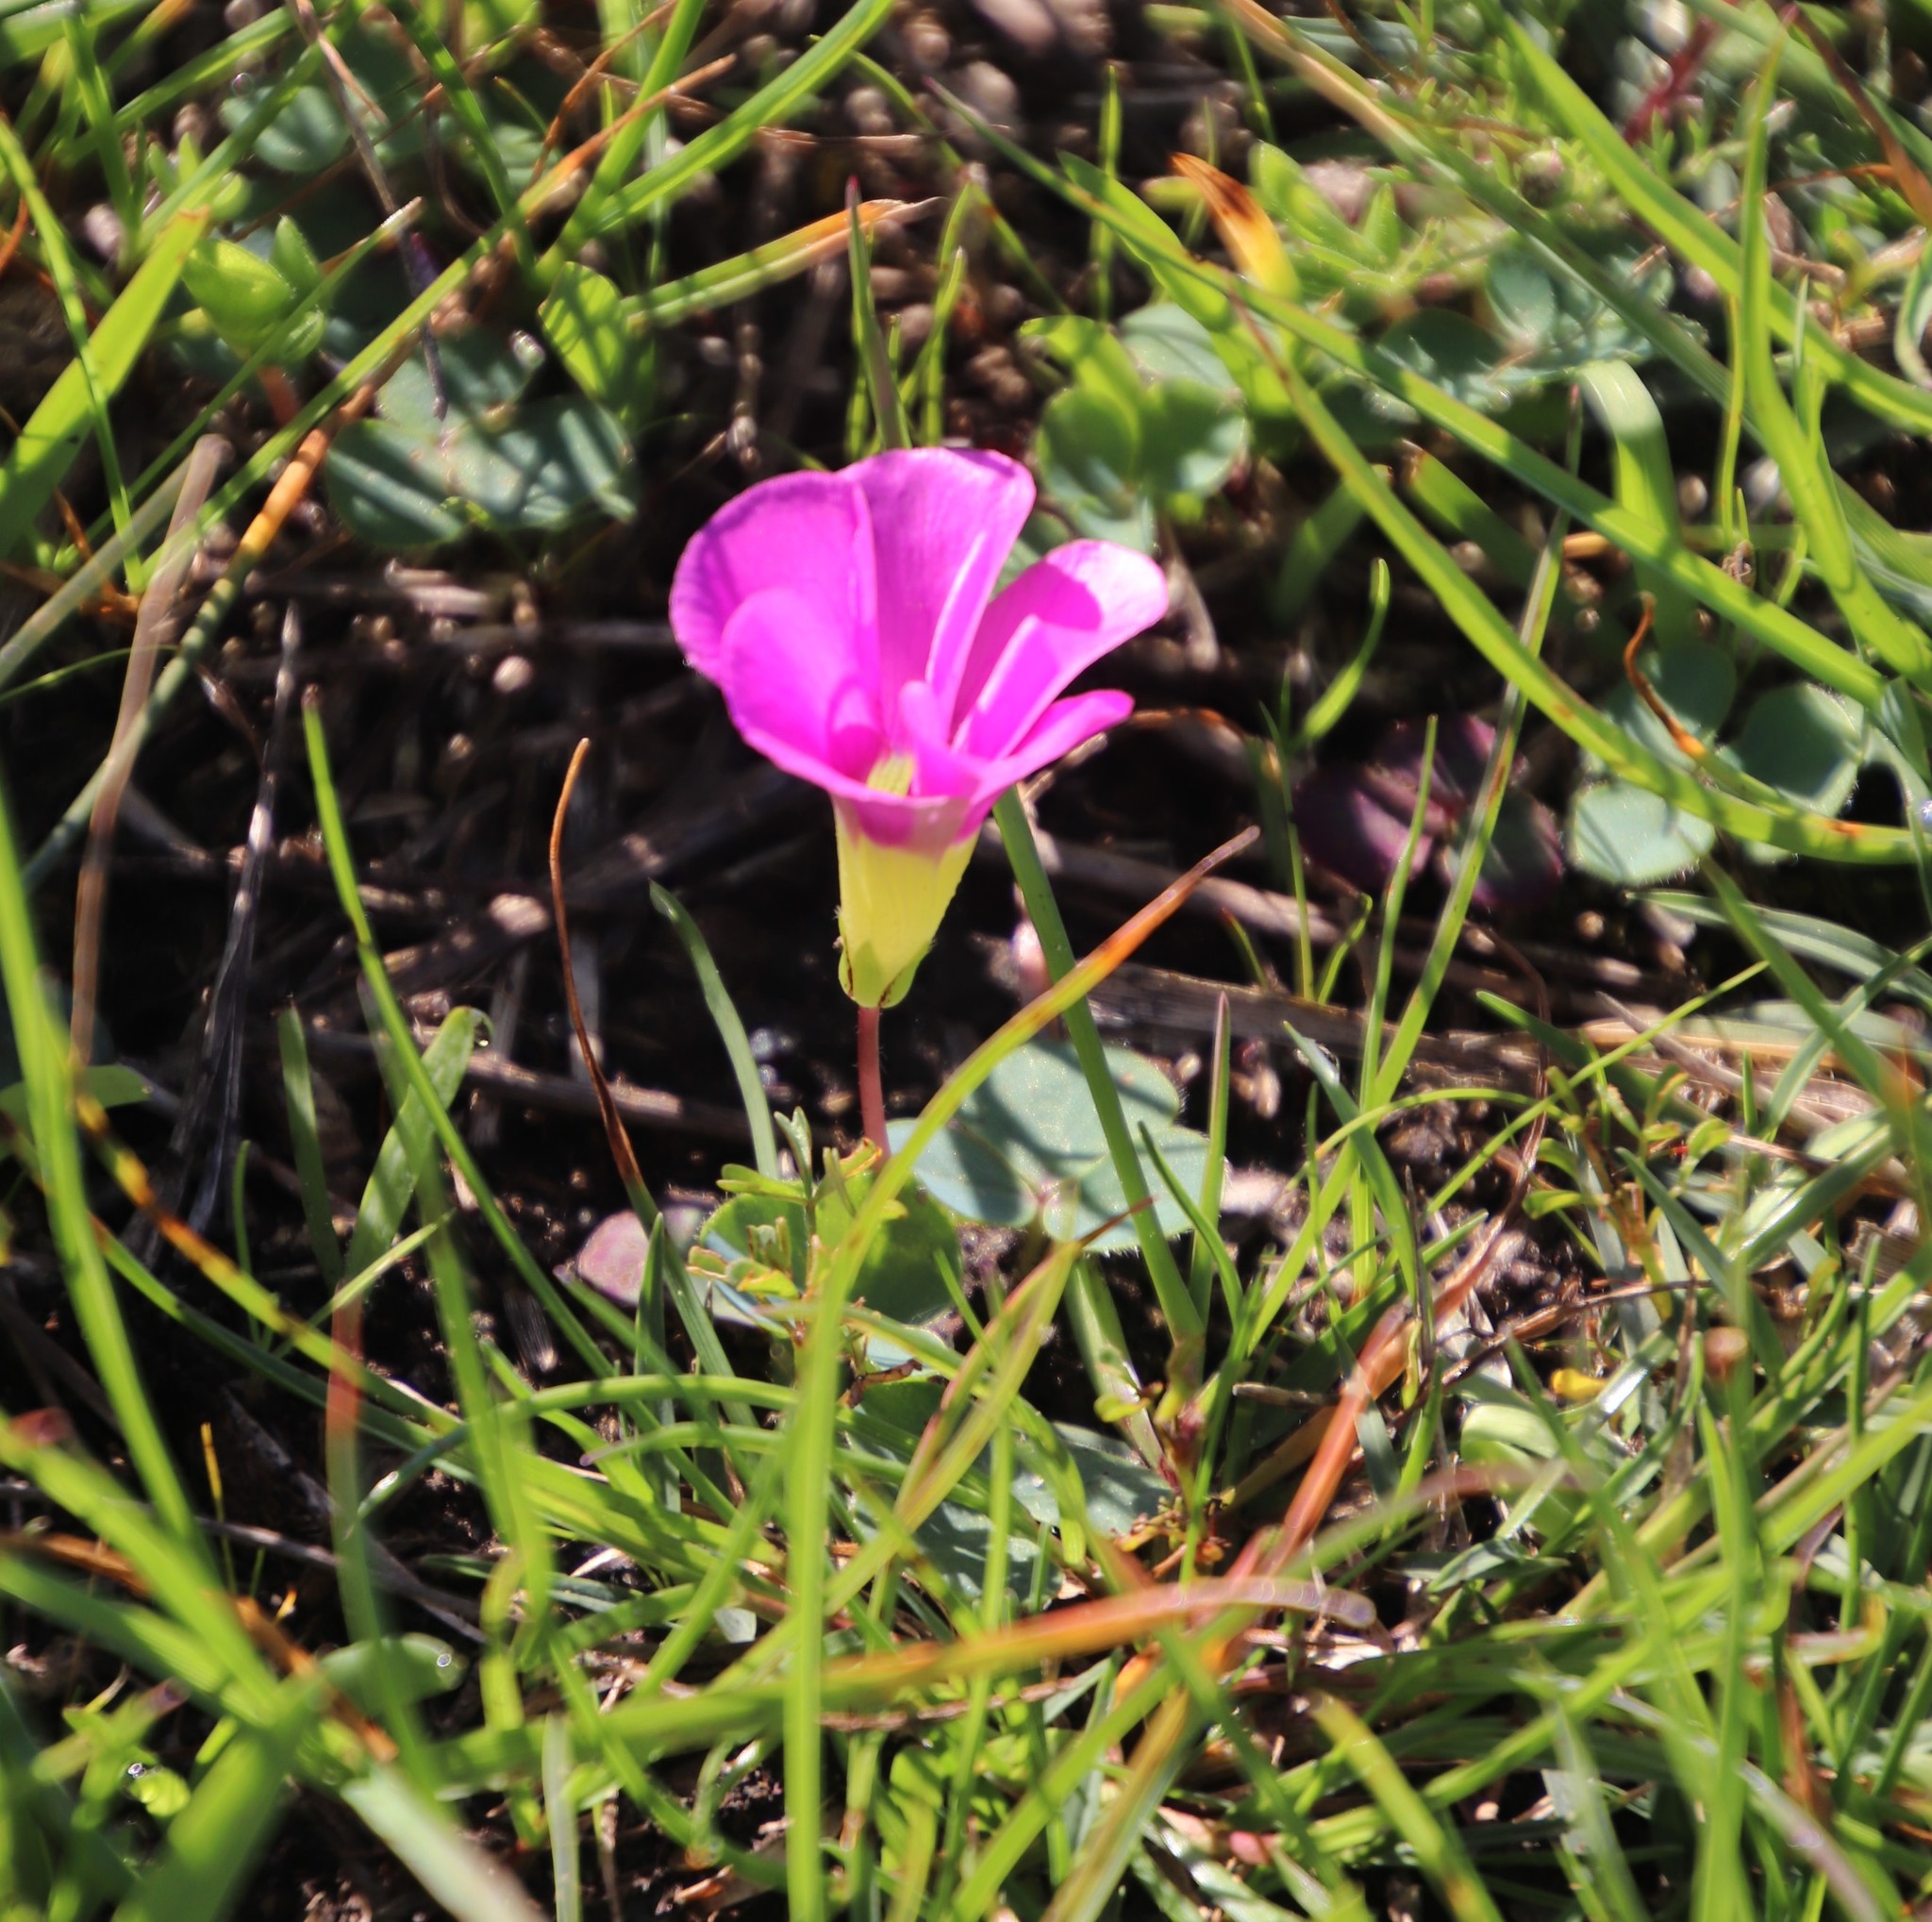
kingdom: Plantae
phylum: Tracheophyta
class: Magnoliopsida
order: Oxalidales
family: Oxalidaceae
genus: Oxalis
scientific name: Oxalis purpurea
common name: Purple woodsorrel
